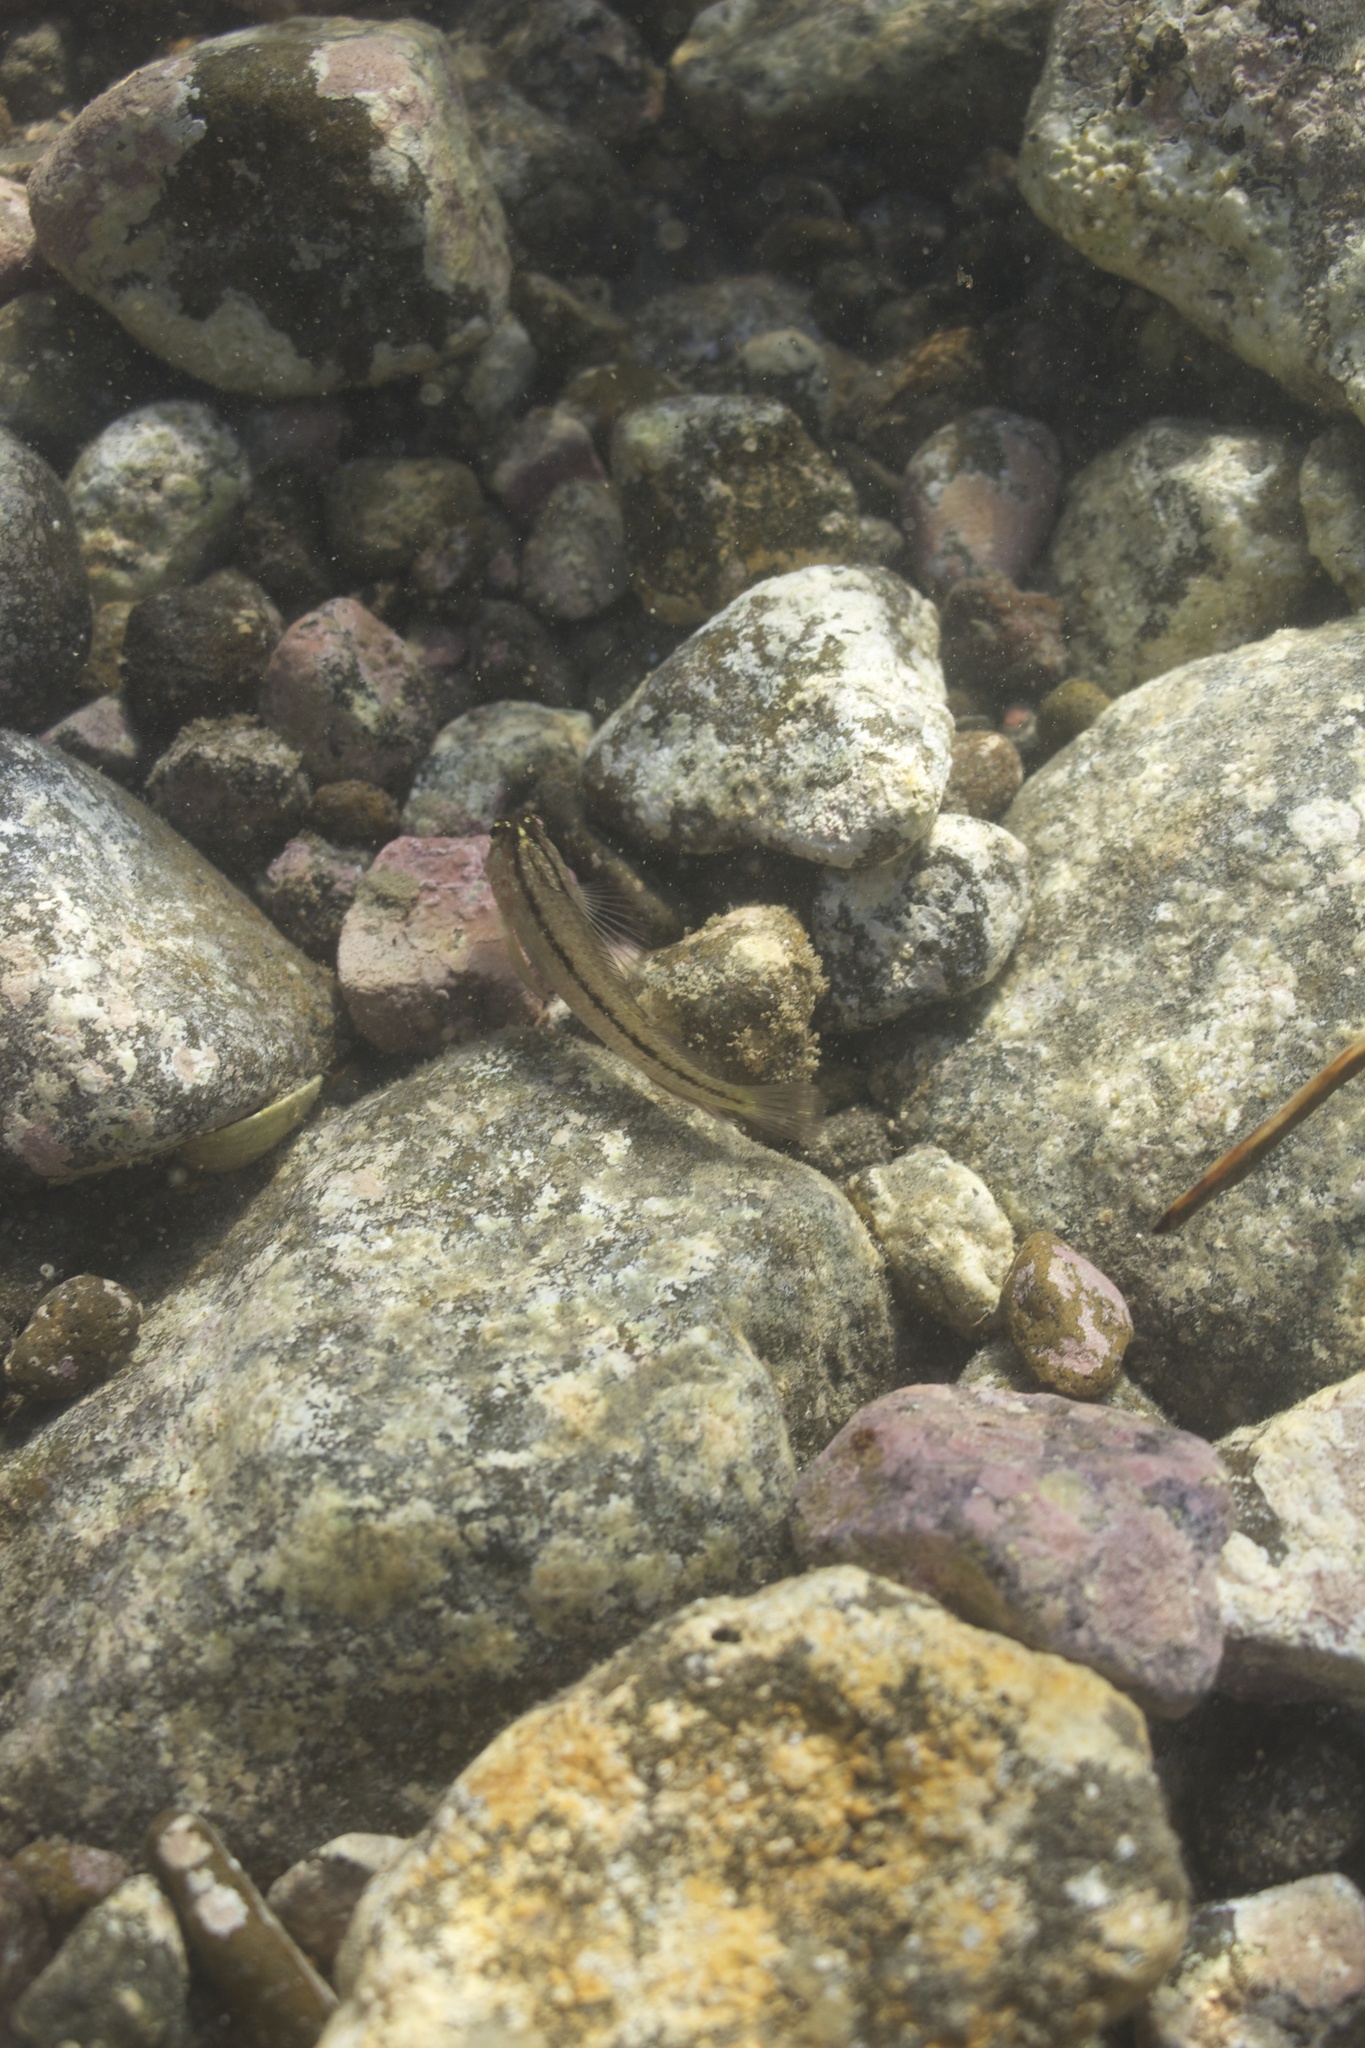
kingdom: Animalia
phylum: Chordata
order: Perciformes
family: Tripterygiidae
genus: Forsterygion
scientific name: Forsterygion lapillum
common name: Common triplefin
